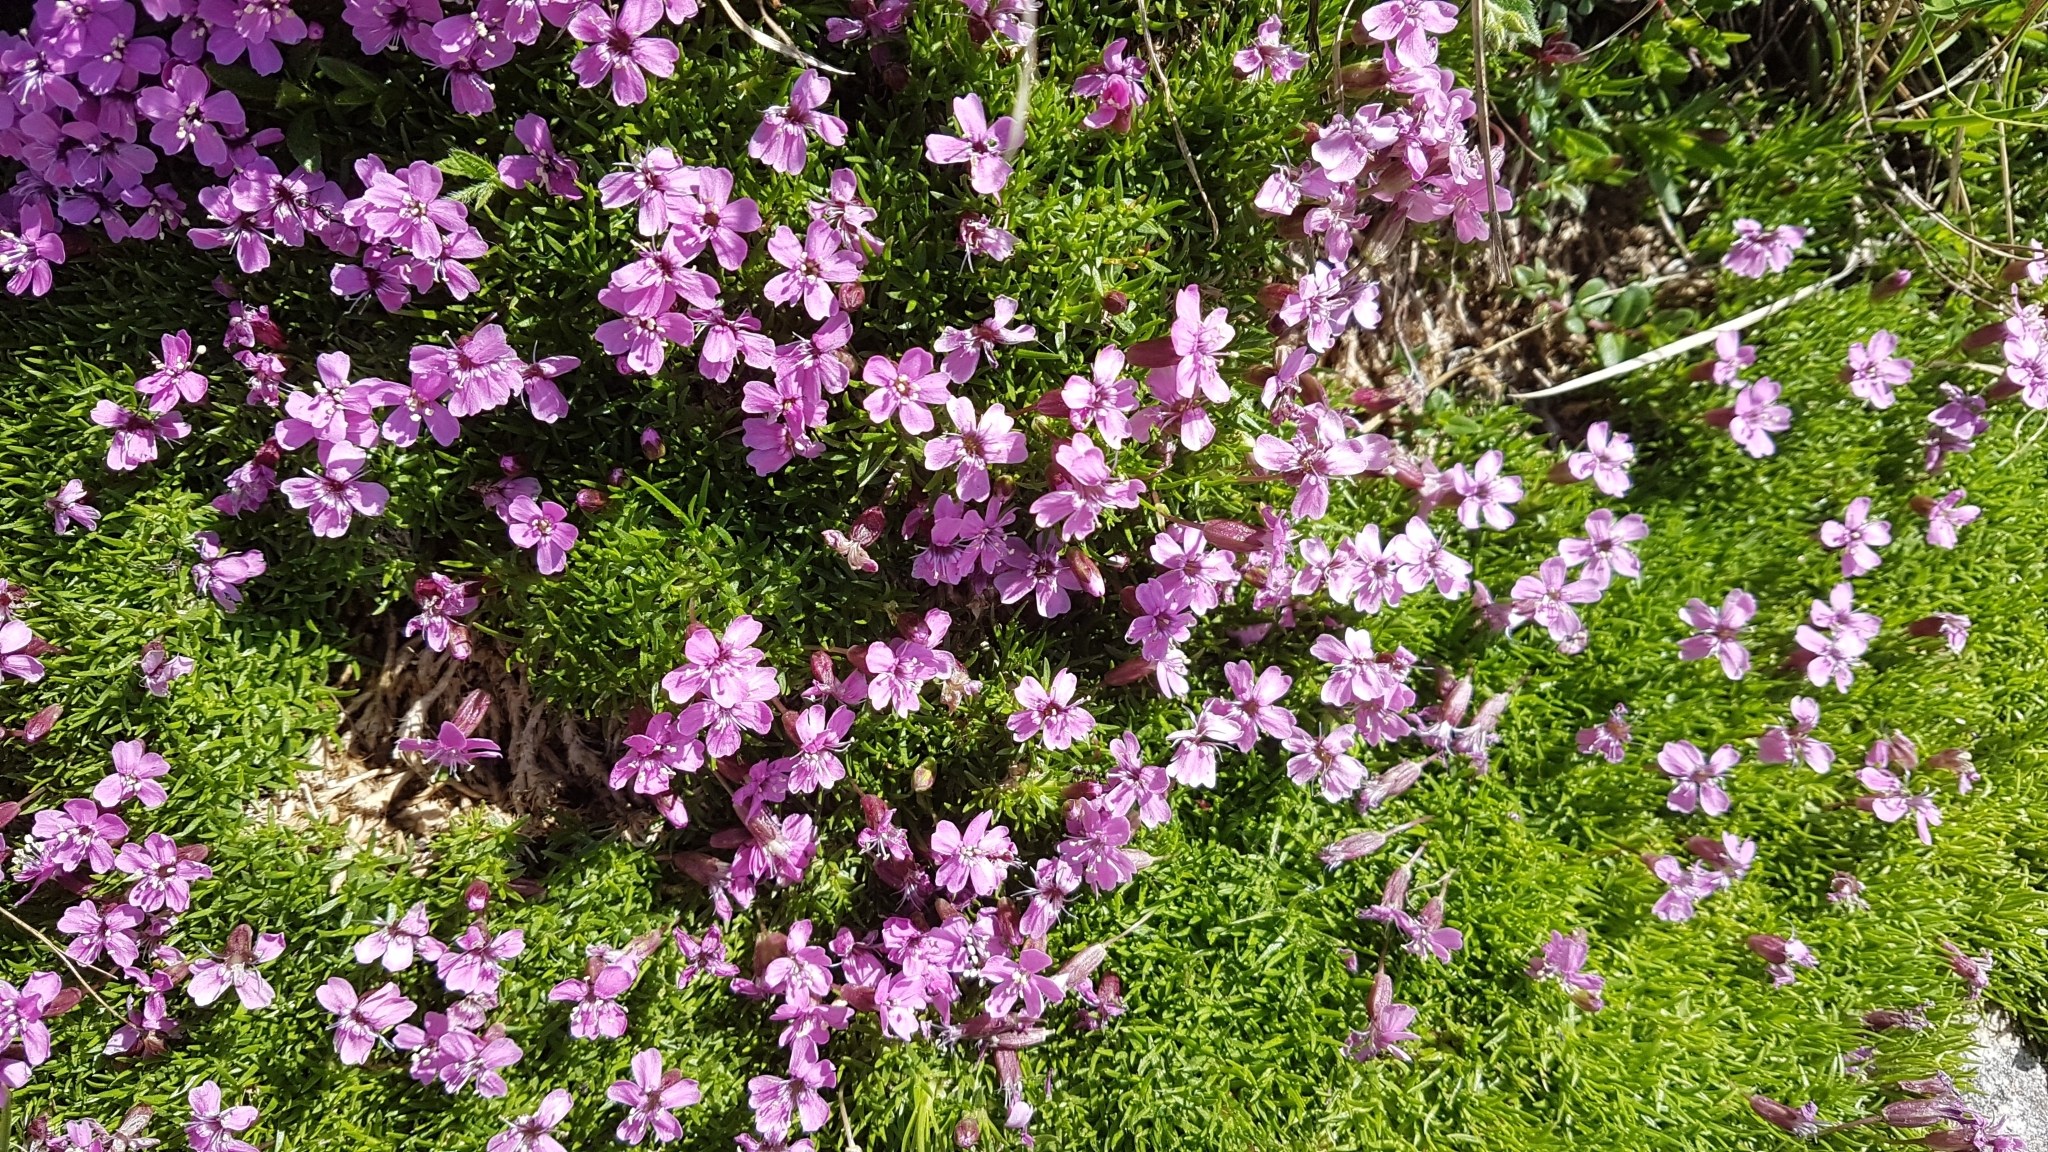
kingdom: Plantae
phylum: Tracheophyta
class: Magnoliopsida
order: Caryophyllales
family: Caryophyllaceae
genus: Silene
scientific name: Silene acaulis
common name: Moss campion
